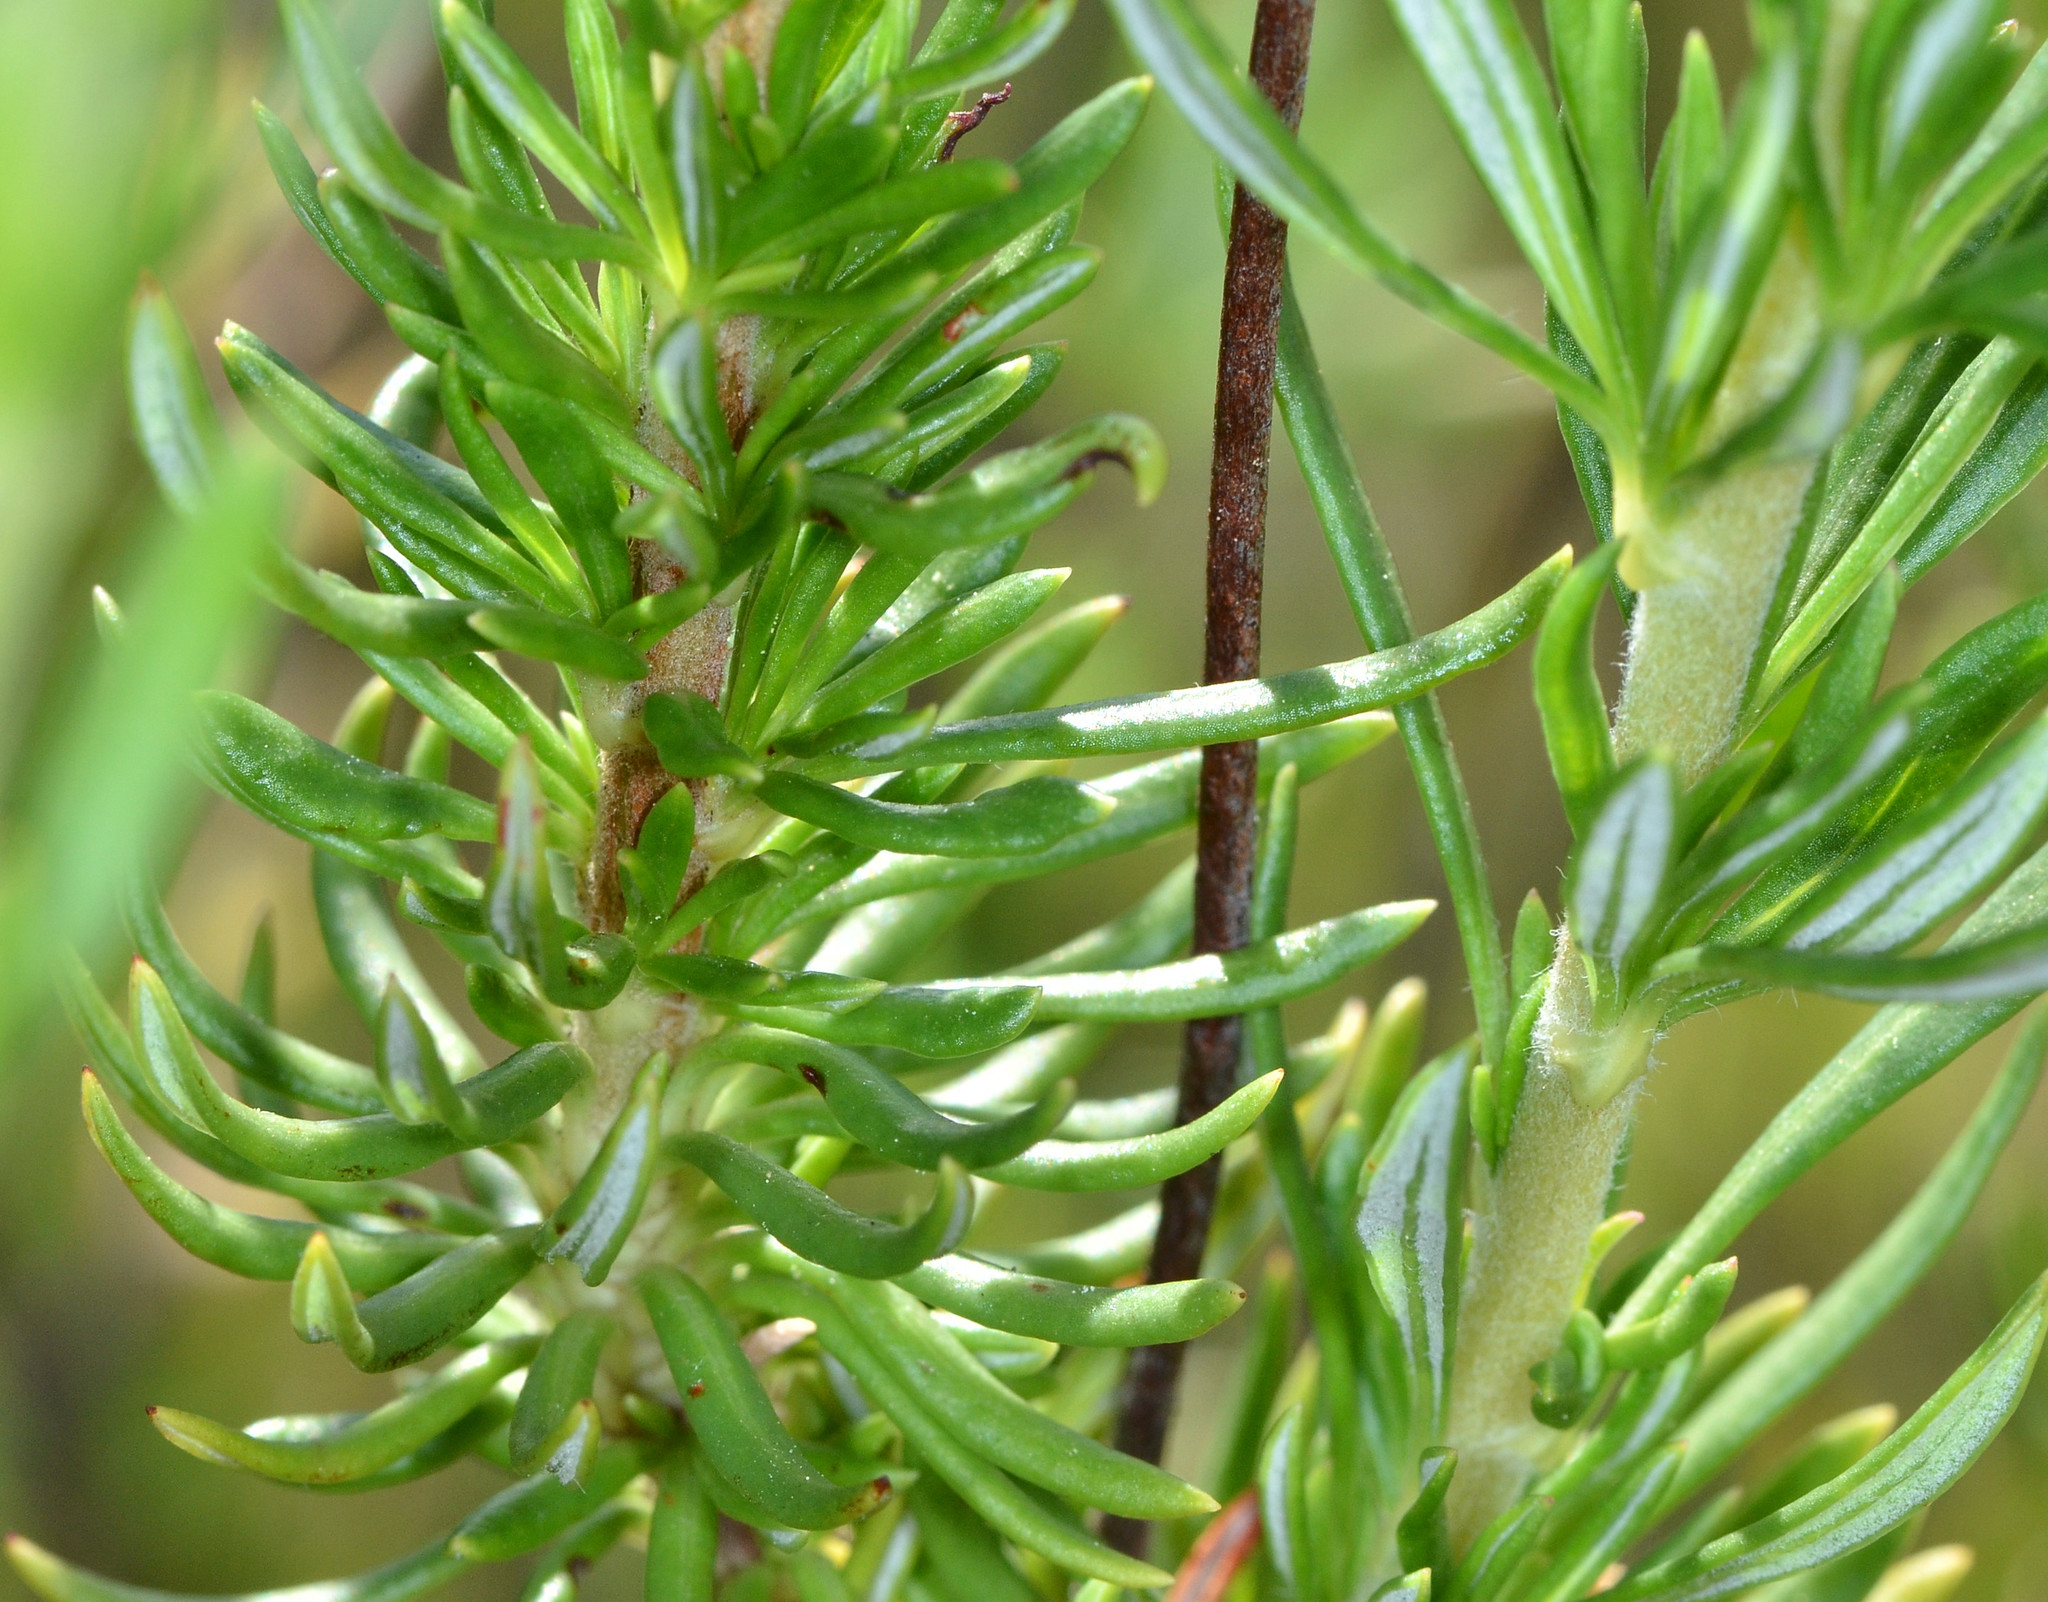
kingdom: Plantae
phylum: Tracheophyta
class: Magnoliopsida
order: Caryophyllales
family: Polygonaceae
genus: Eriogonum
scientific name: Eriogonum fasciculatum
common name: California wild buckwheat
